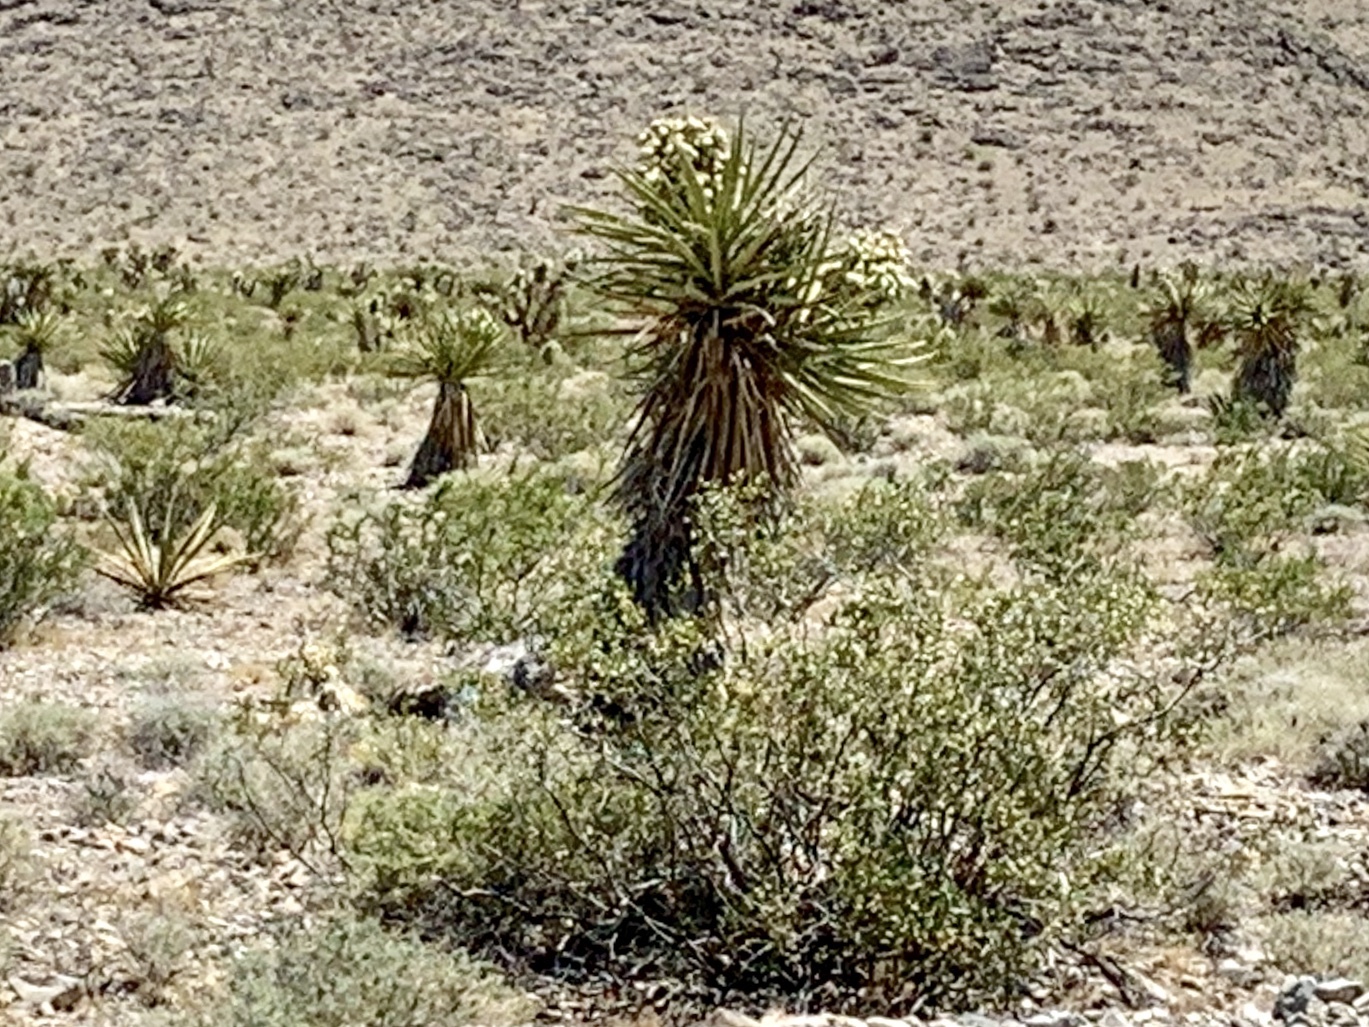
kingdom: Plantae
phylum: Tracheophyta
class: Liliopsida
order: Asparagales
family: Asparagaceae
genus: Yucca
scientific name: Yucca schidigera
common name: Mojave yucca
